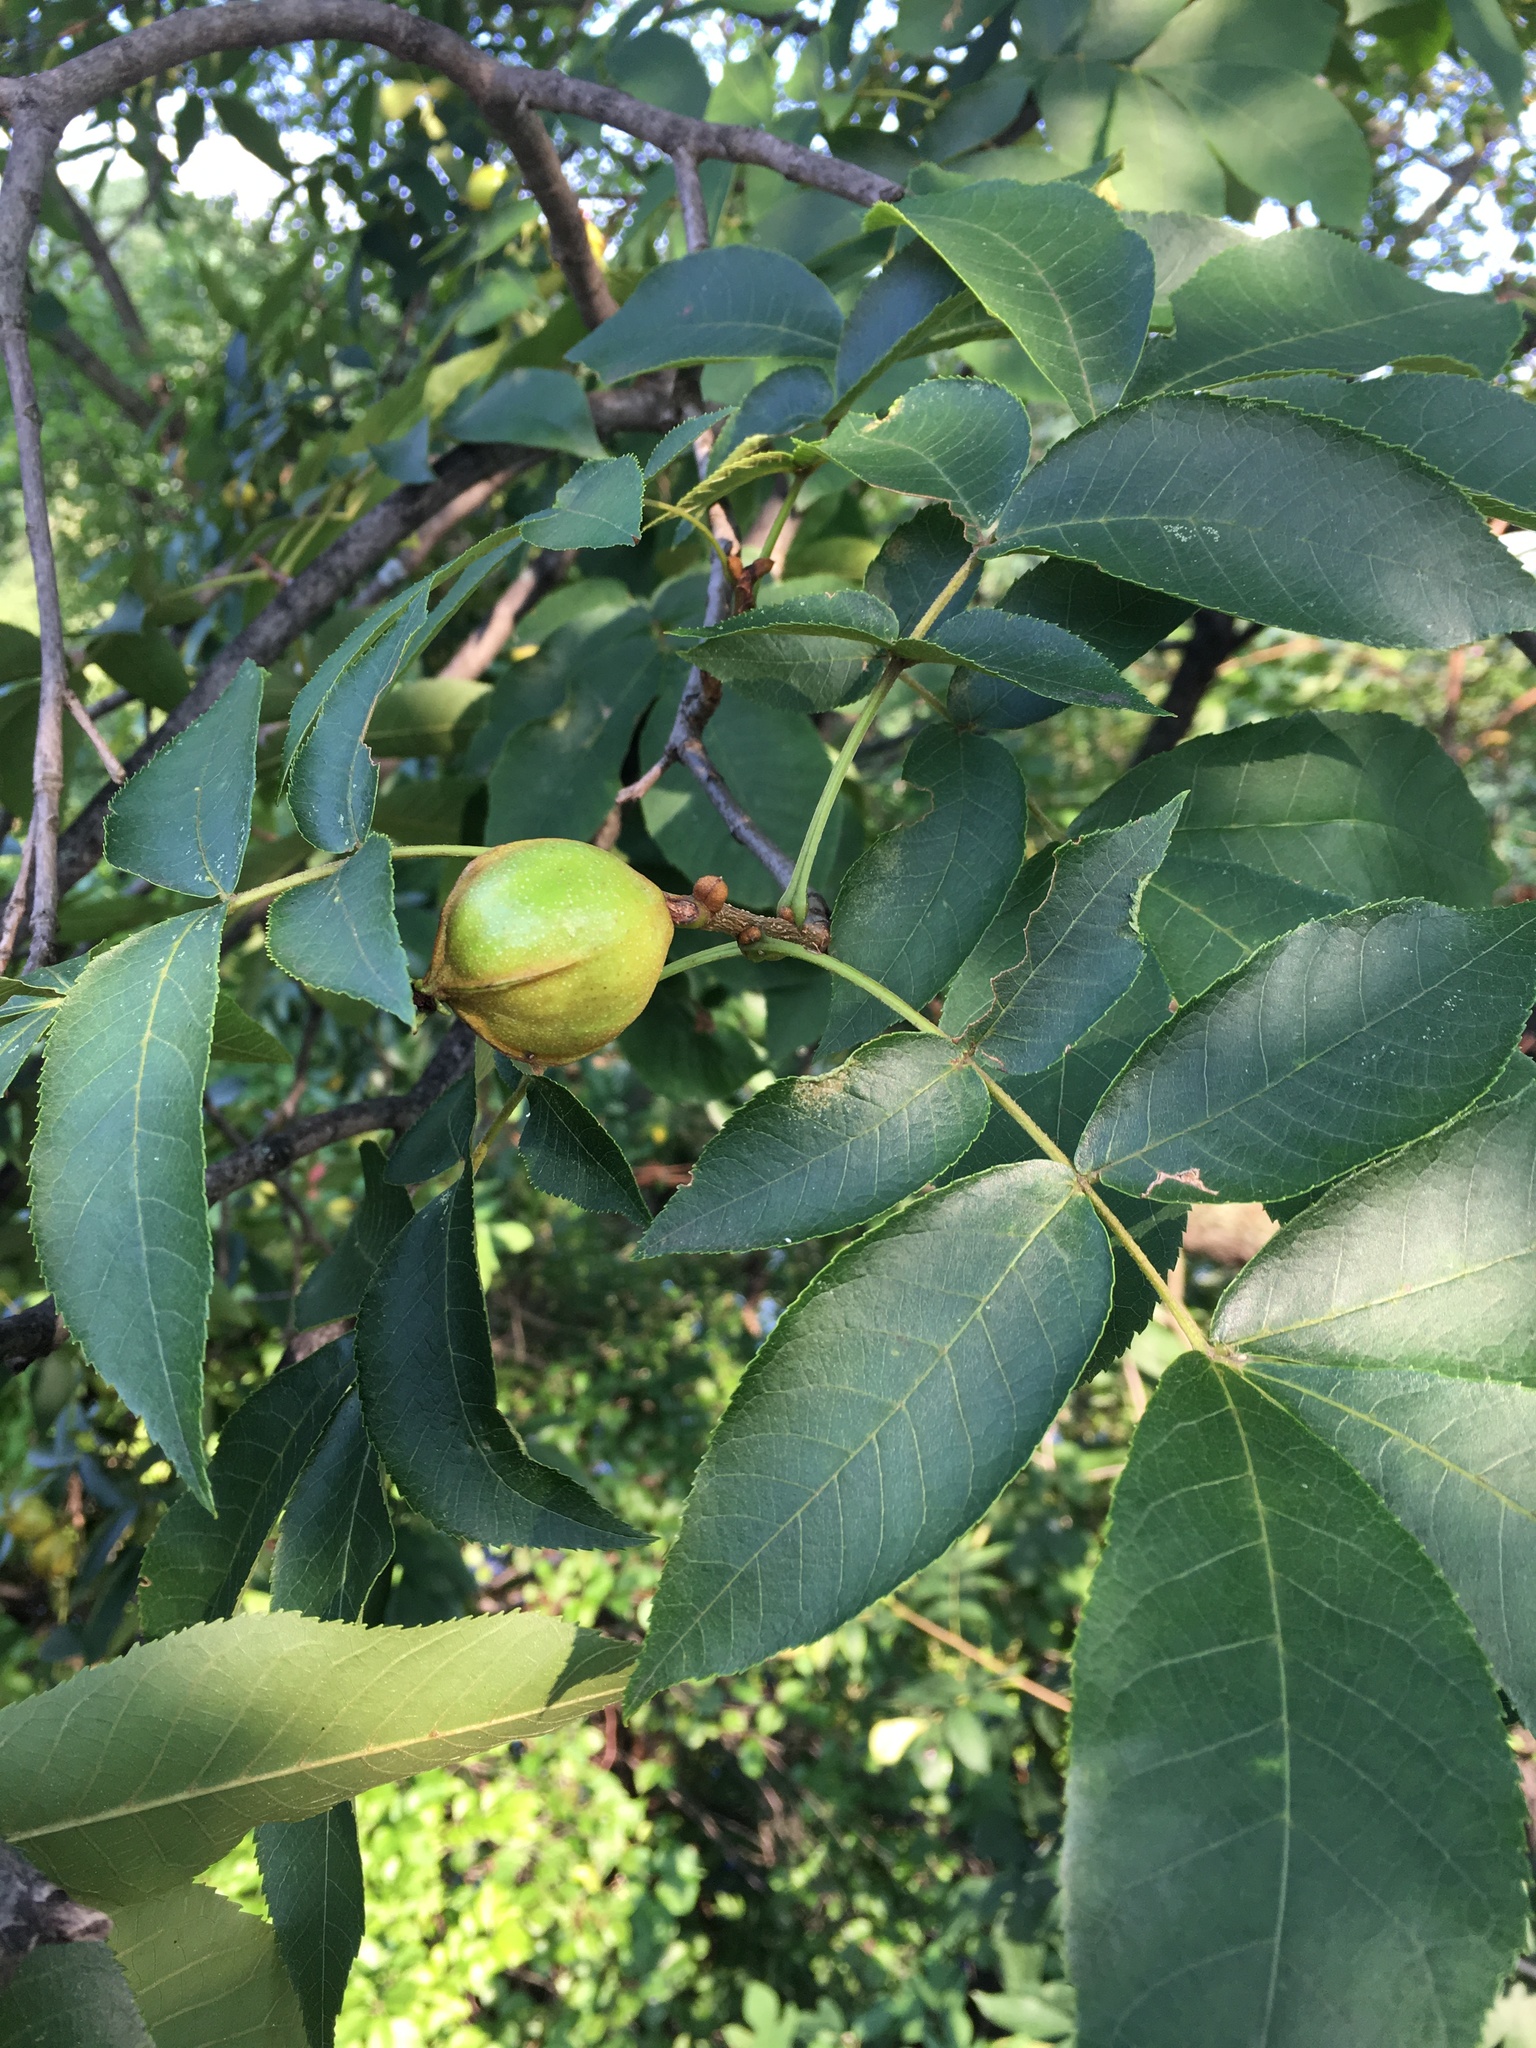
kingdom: Plantae
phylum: Tracheophyta
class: Magnoliopsida
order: Fagales
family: Juglandaceae
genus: Carya
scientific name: Carya cordiformis
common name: Bitternut hickory
